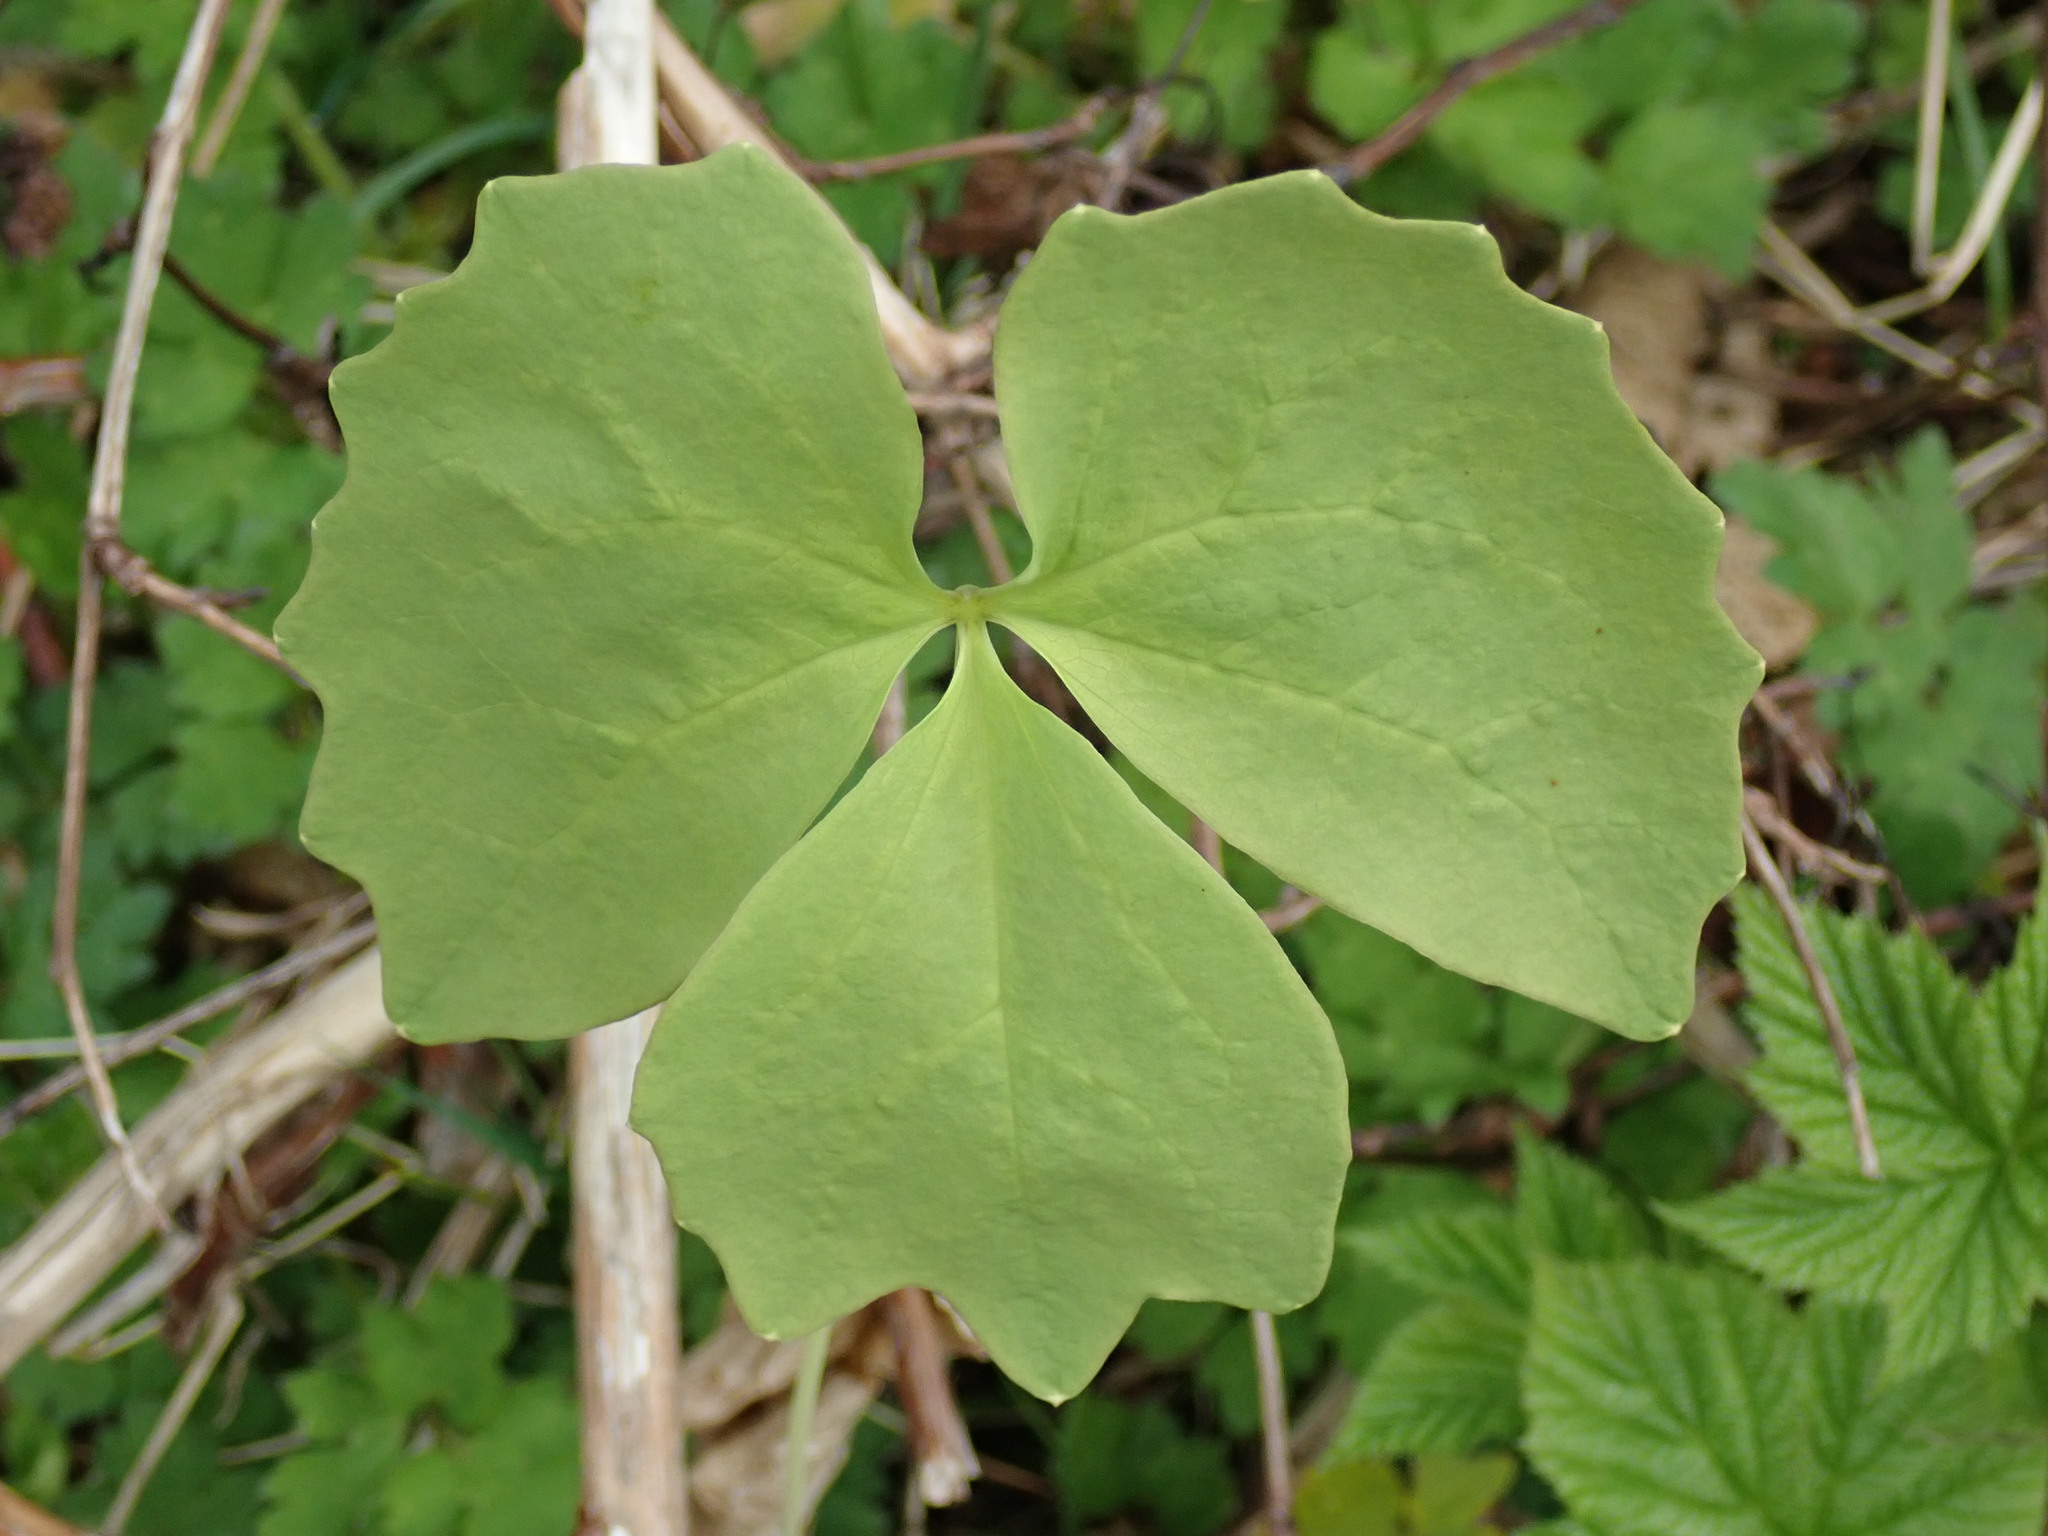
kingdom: Plantae
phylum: Tracheophyta
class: Magnoliopsida
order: Ranunculales
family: Berberidaceae
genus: Achlys
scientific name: Achlys triphylla
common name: Vanilla-leaf
